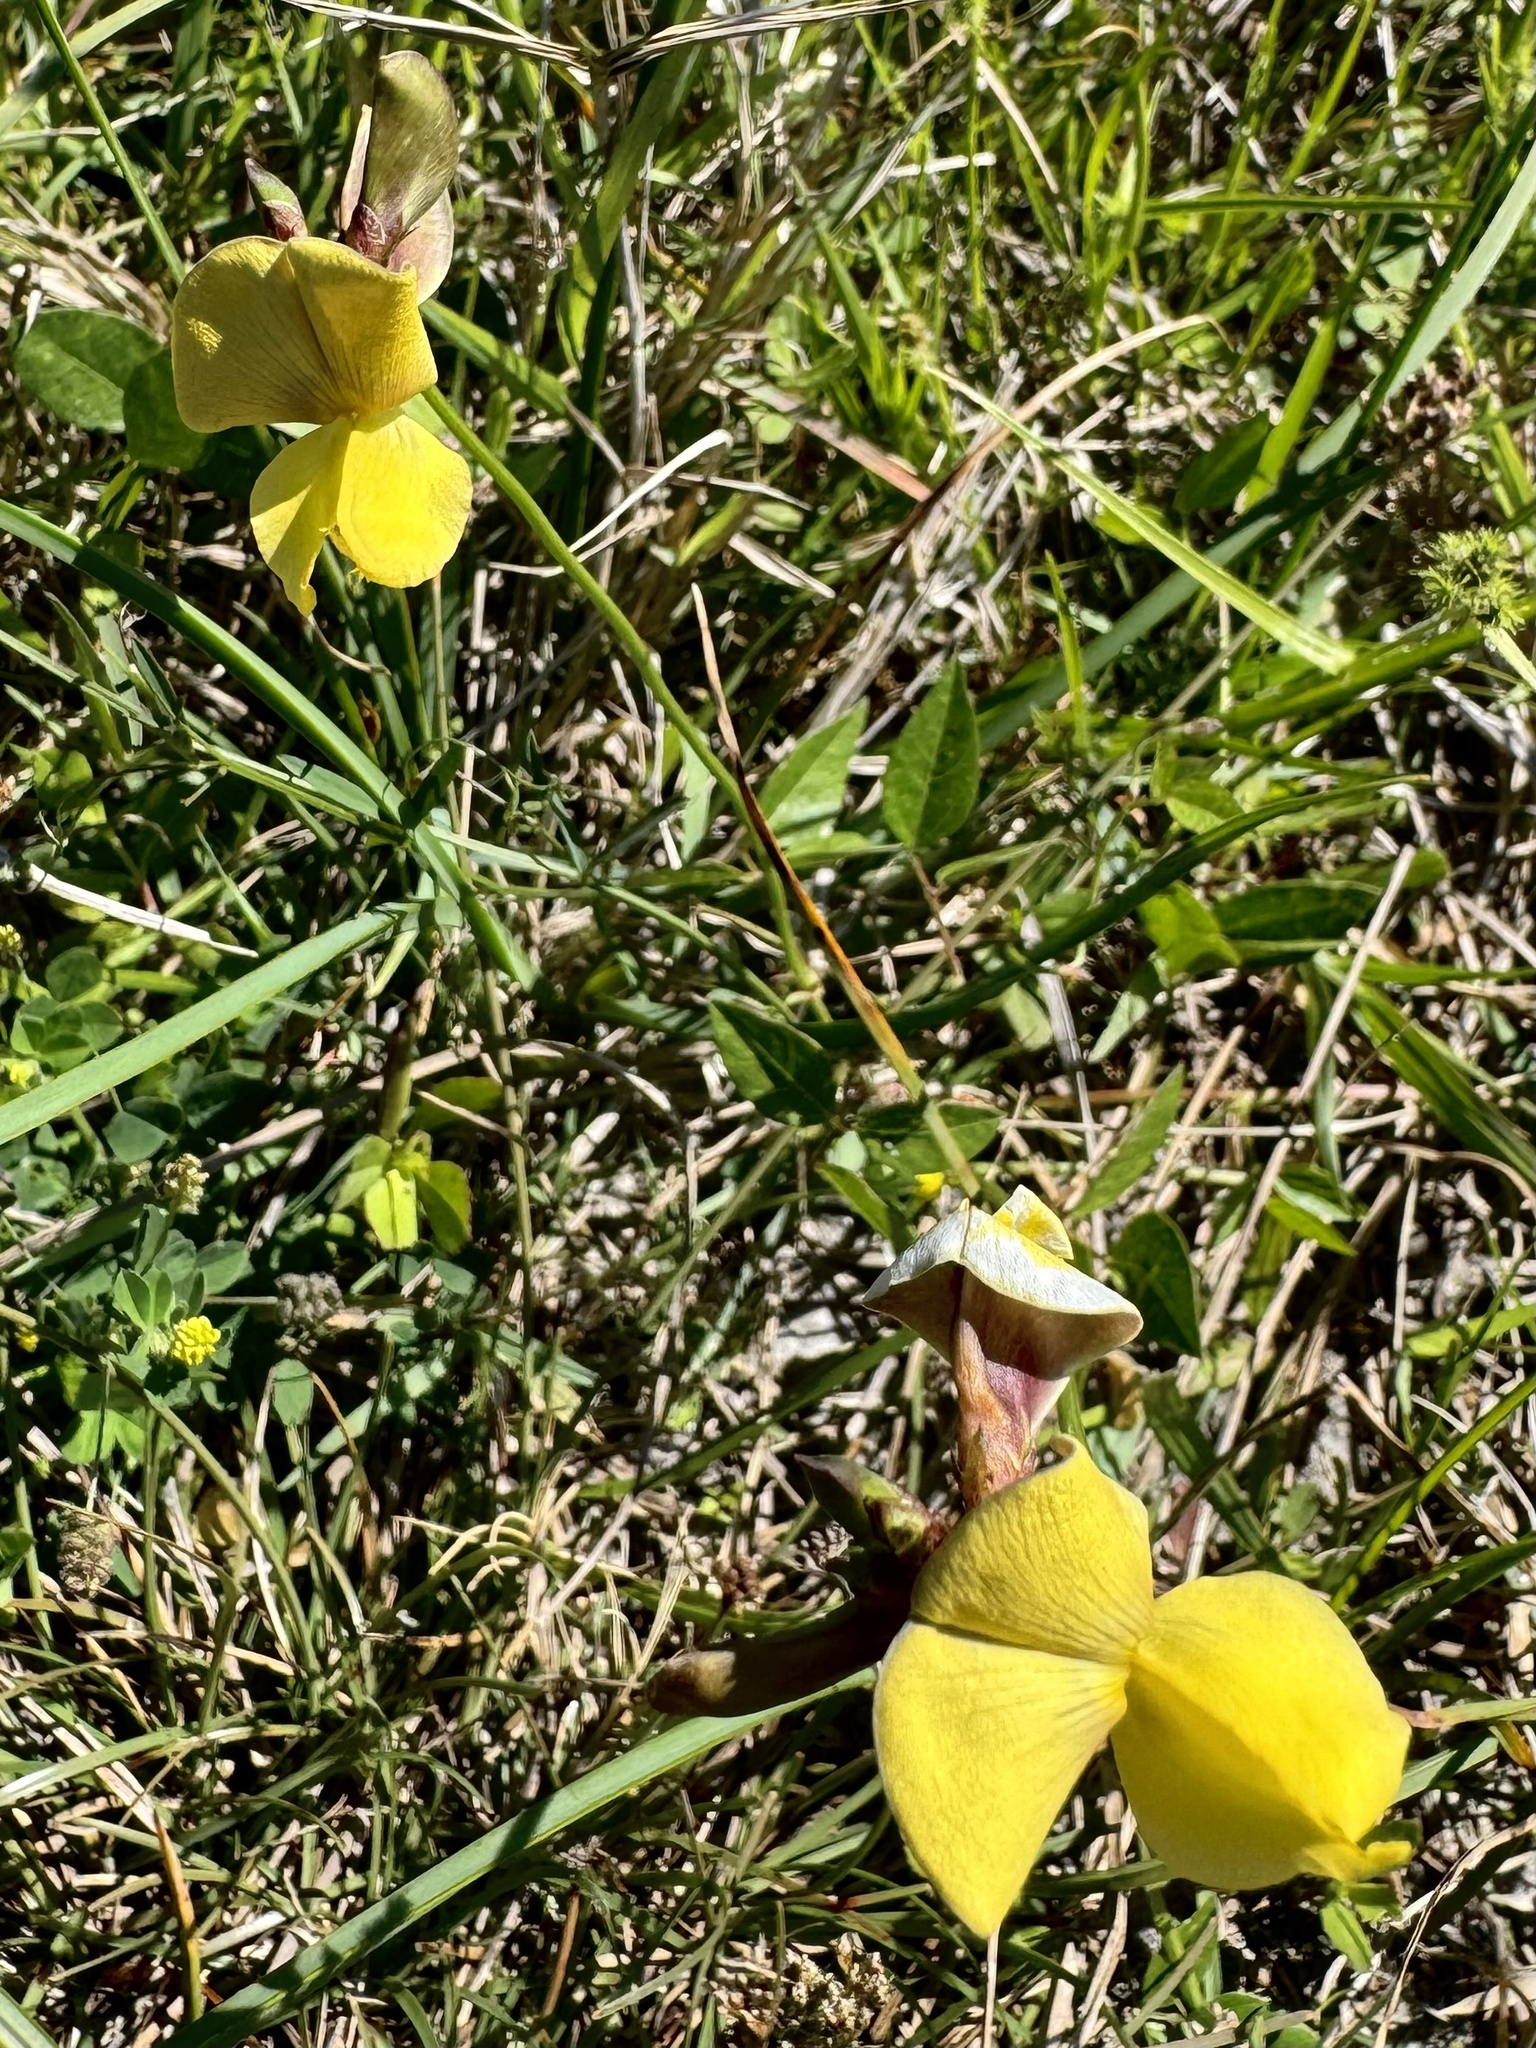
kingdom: Plantae
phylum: Tracheophyta
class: Magnoliopsida
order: Fabales
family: Fabaceae
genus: Vigna
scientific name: Vigna luteola
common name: Hairypod cowpea
